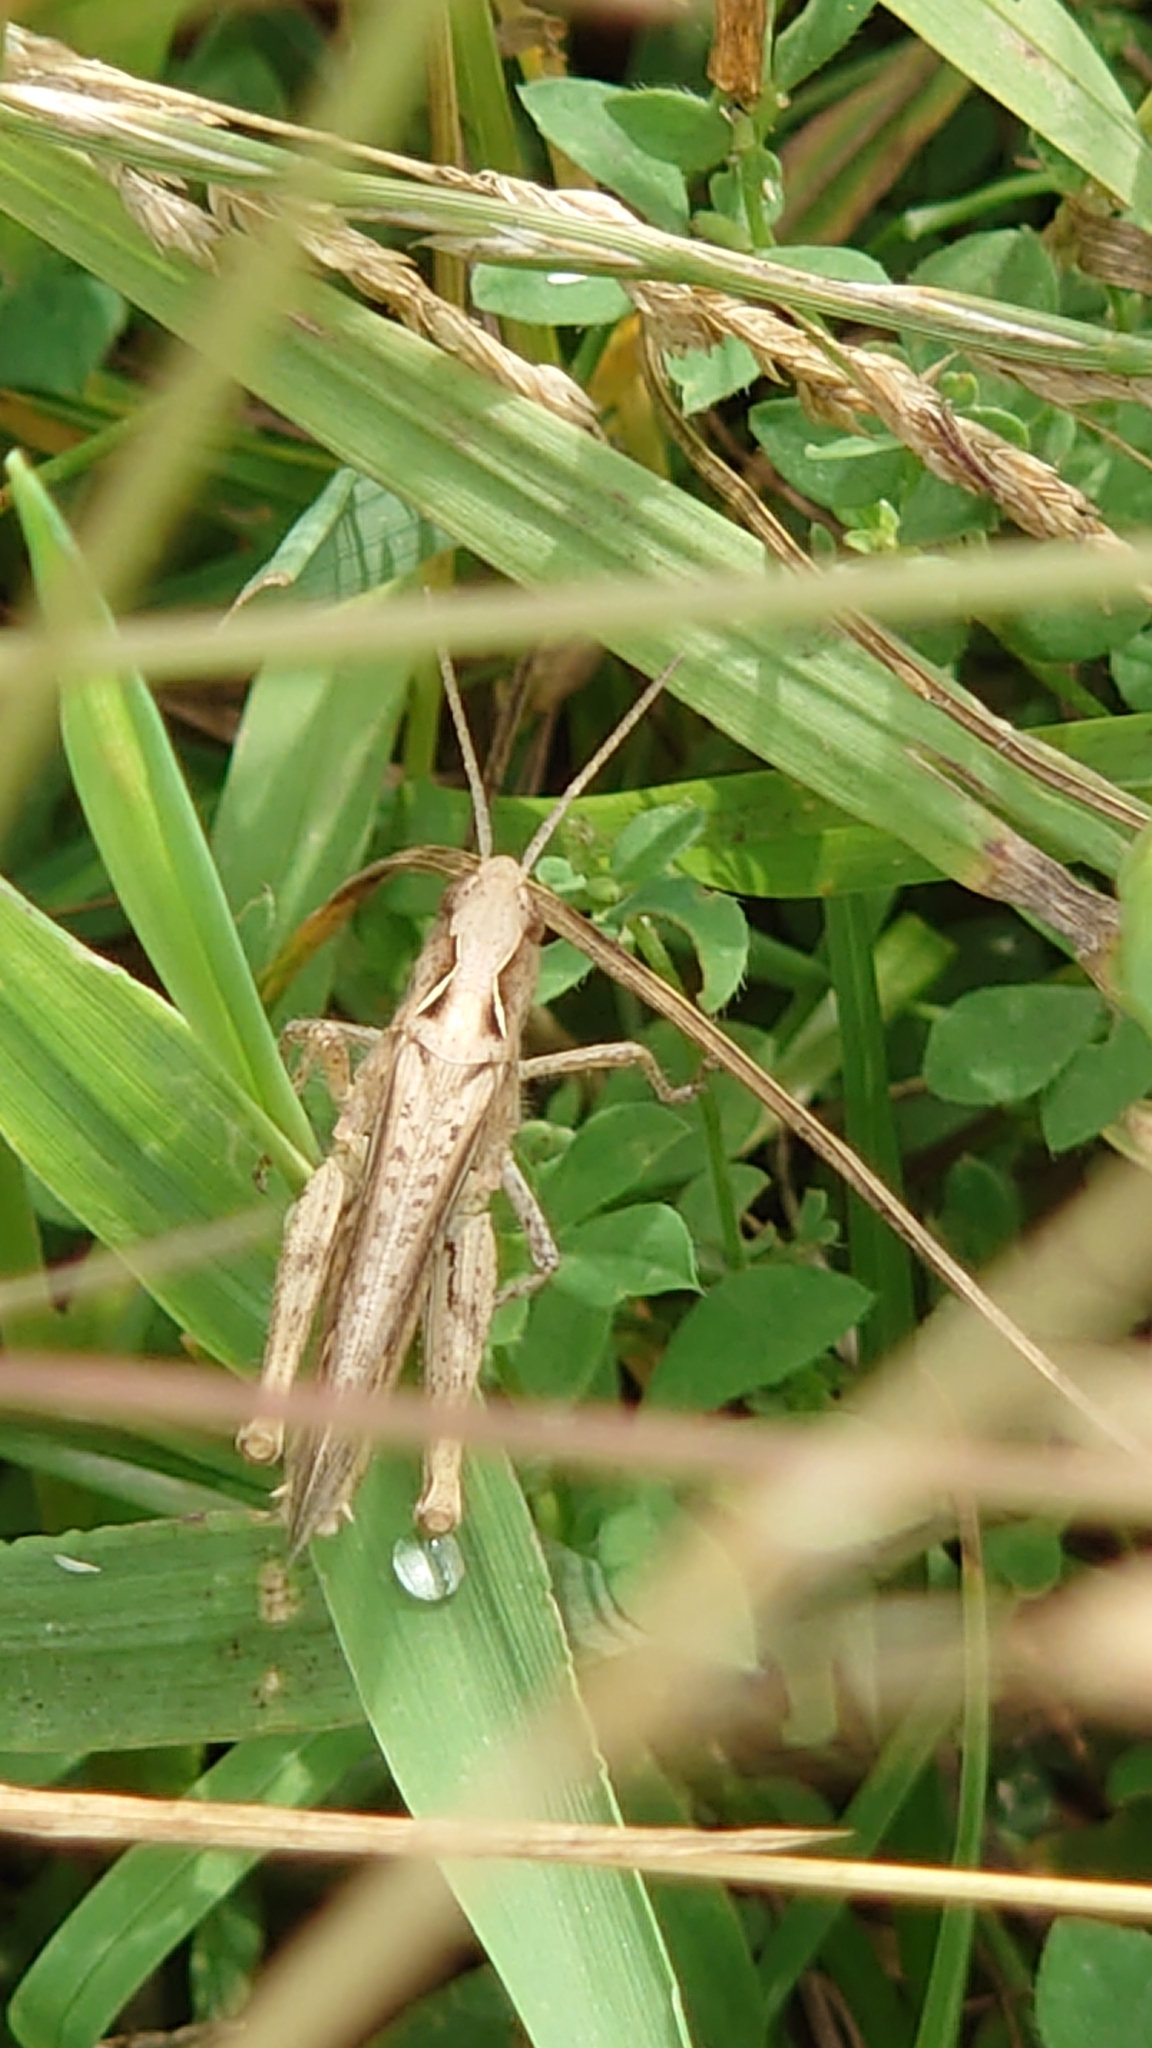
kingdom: Animalia
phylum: Arthropoda
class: Insecta
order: Orthoptera
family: Acrididae
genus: Chorthippus
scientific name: Chorthippus brunneus
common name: Field grasshopper
